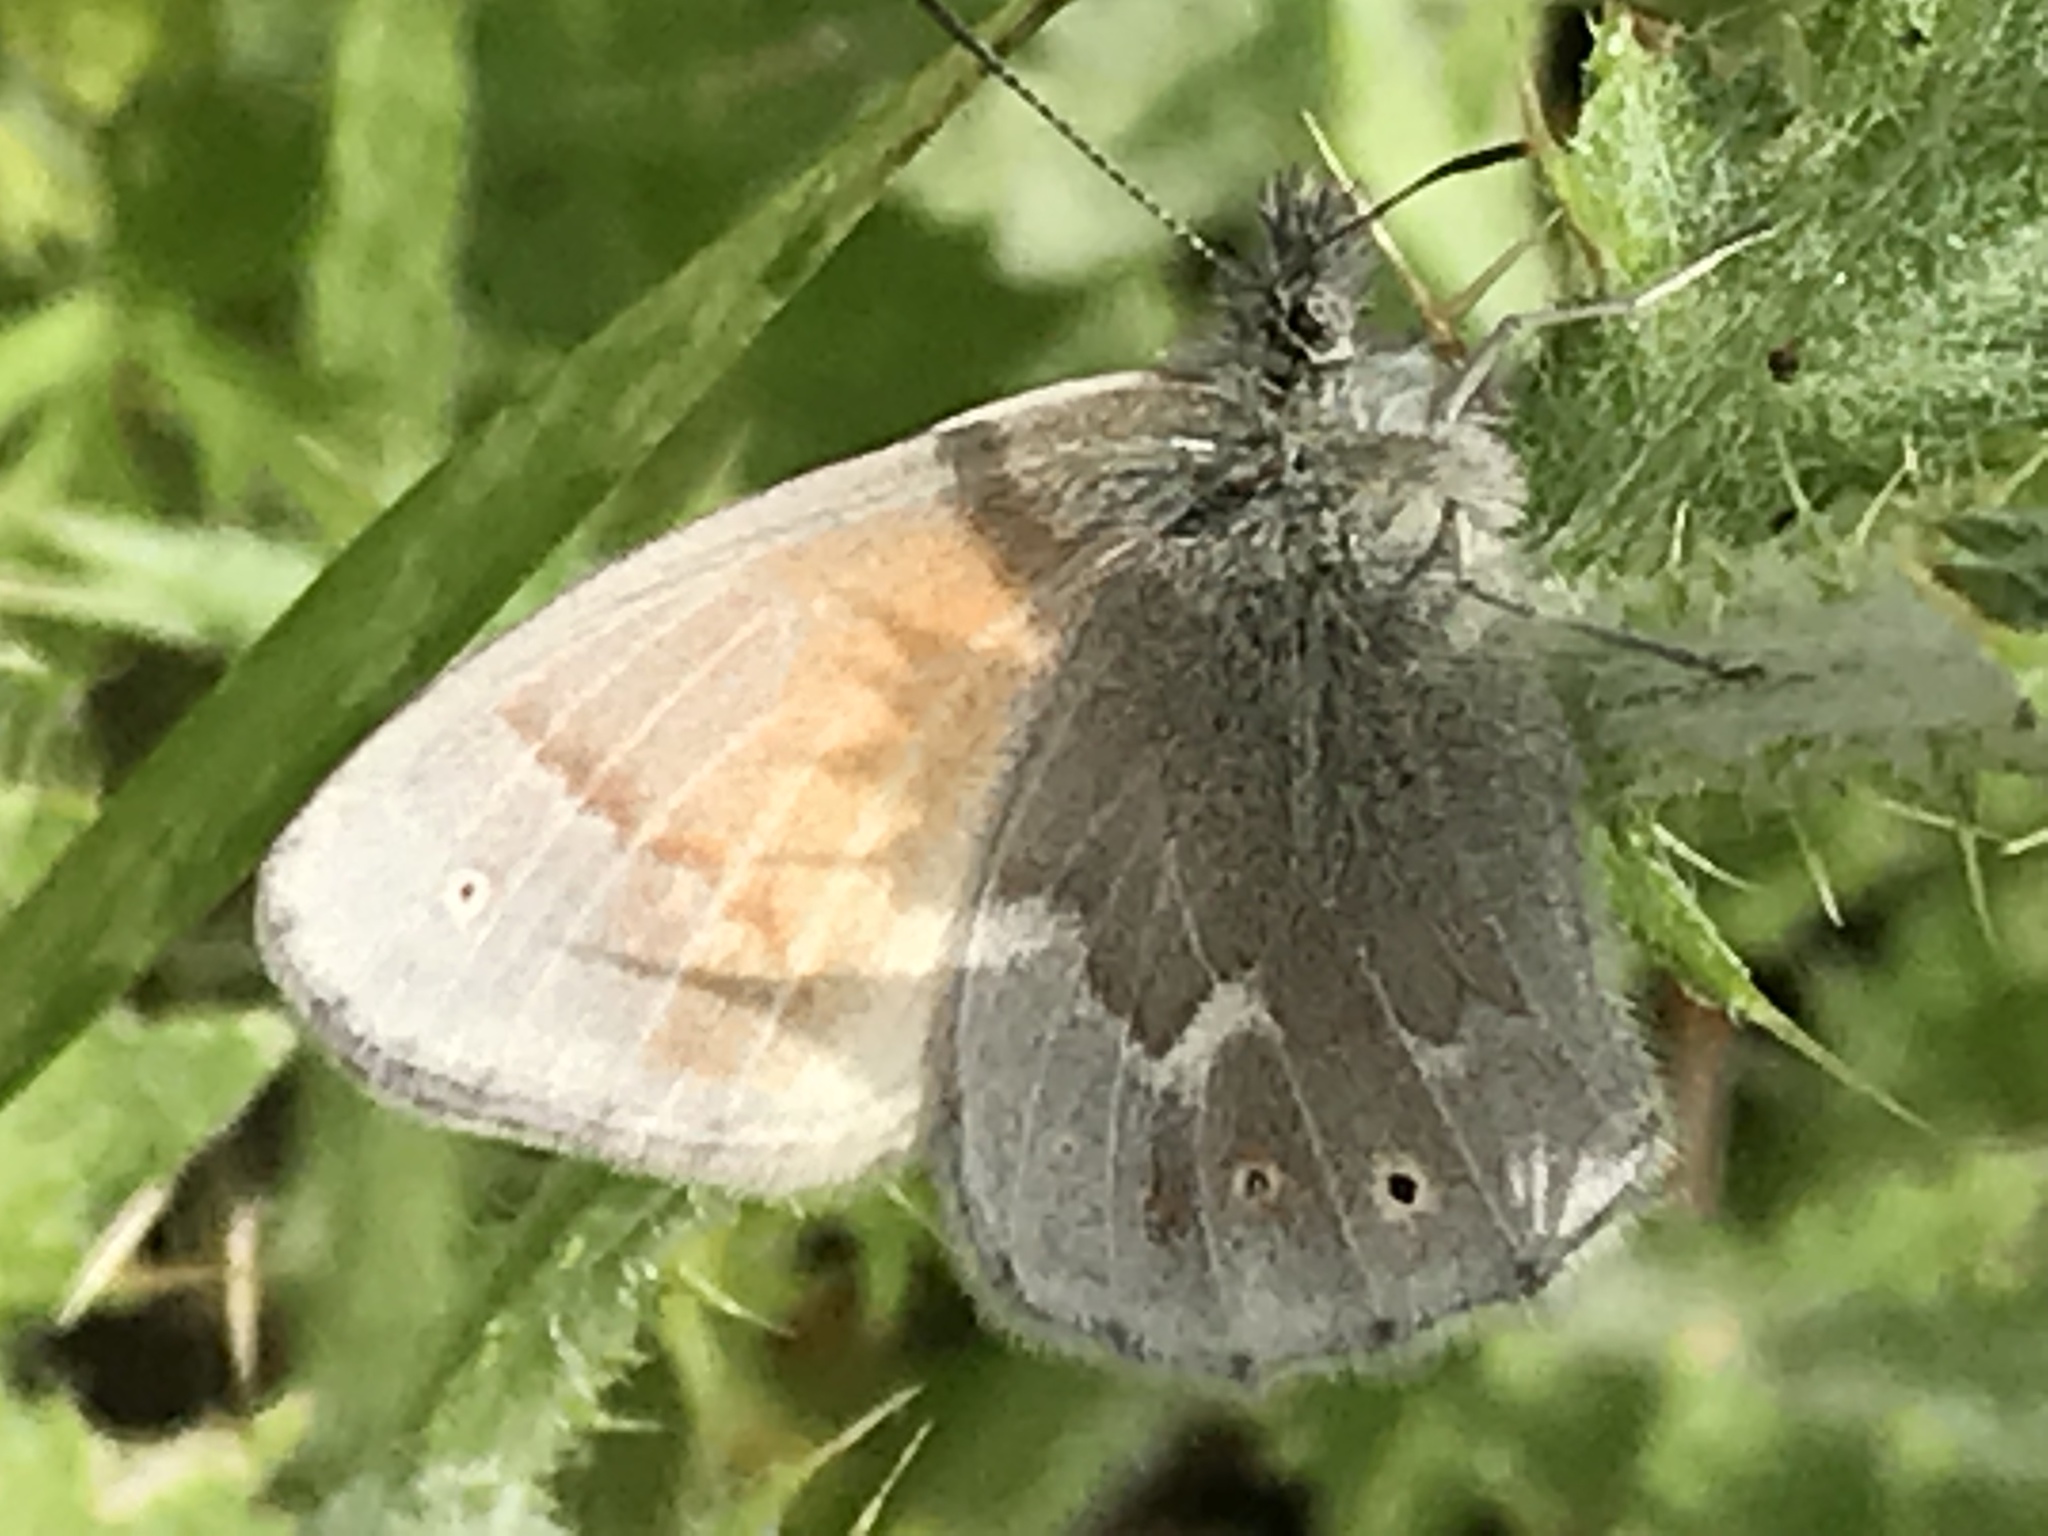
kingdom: Animalia
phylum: Arthropoda
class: Insecta
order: Lepidoptera
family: Nymphalidae
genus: Coenonympha
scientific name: Coenonympha california
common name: Common ringlet
